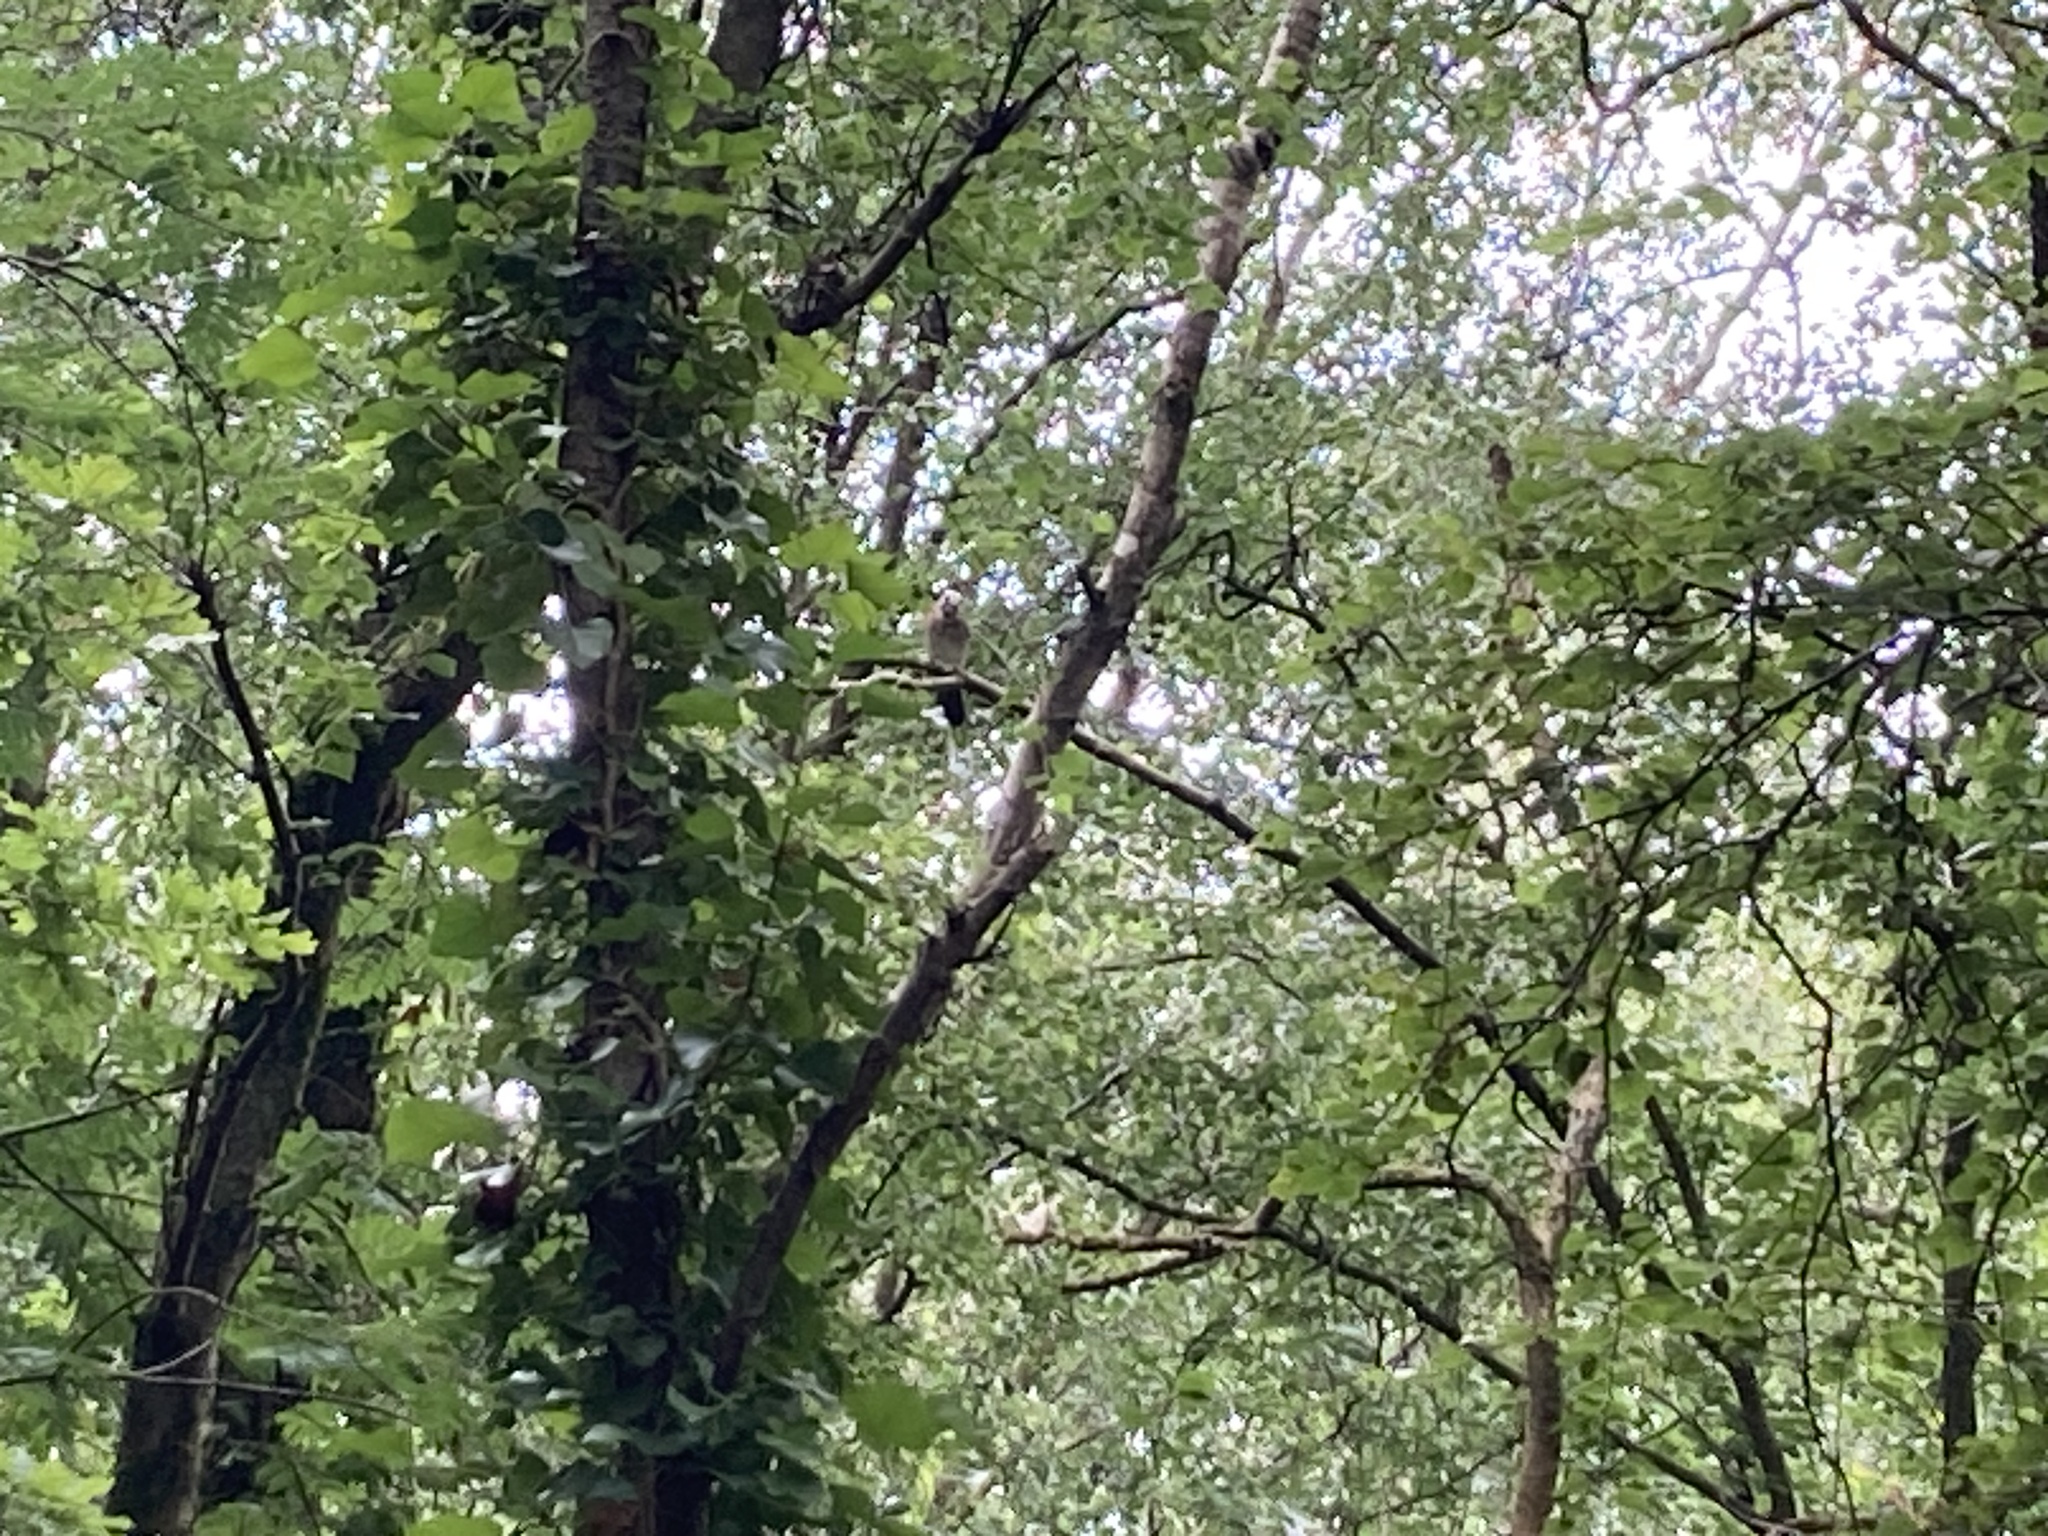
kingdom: Animalia
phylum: Chordata
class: Aves
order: Passeriformes
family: Corvidae
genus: Garrulus
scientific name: Garrulus glandarius
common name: Eurasian jay
